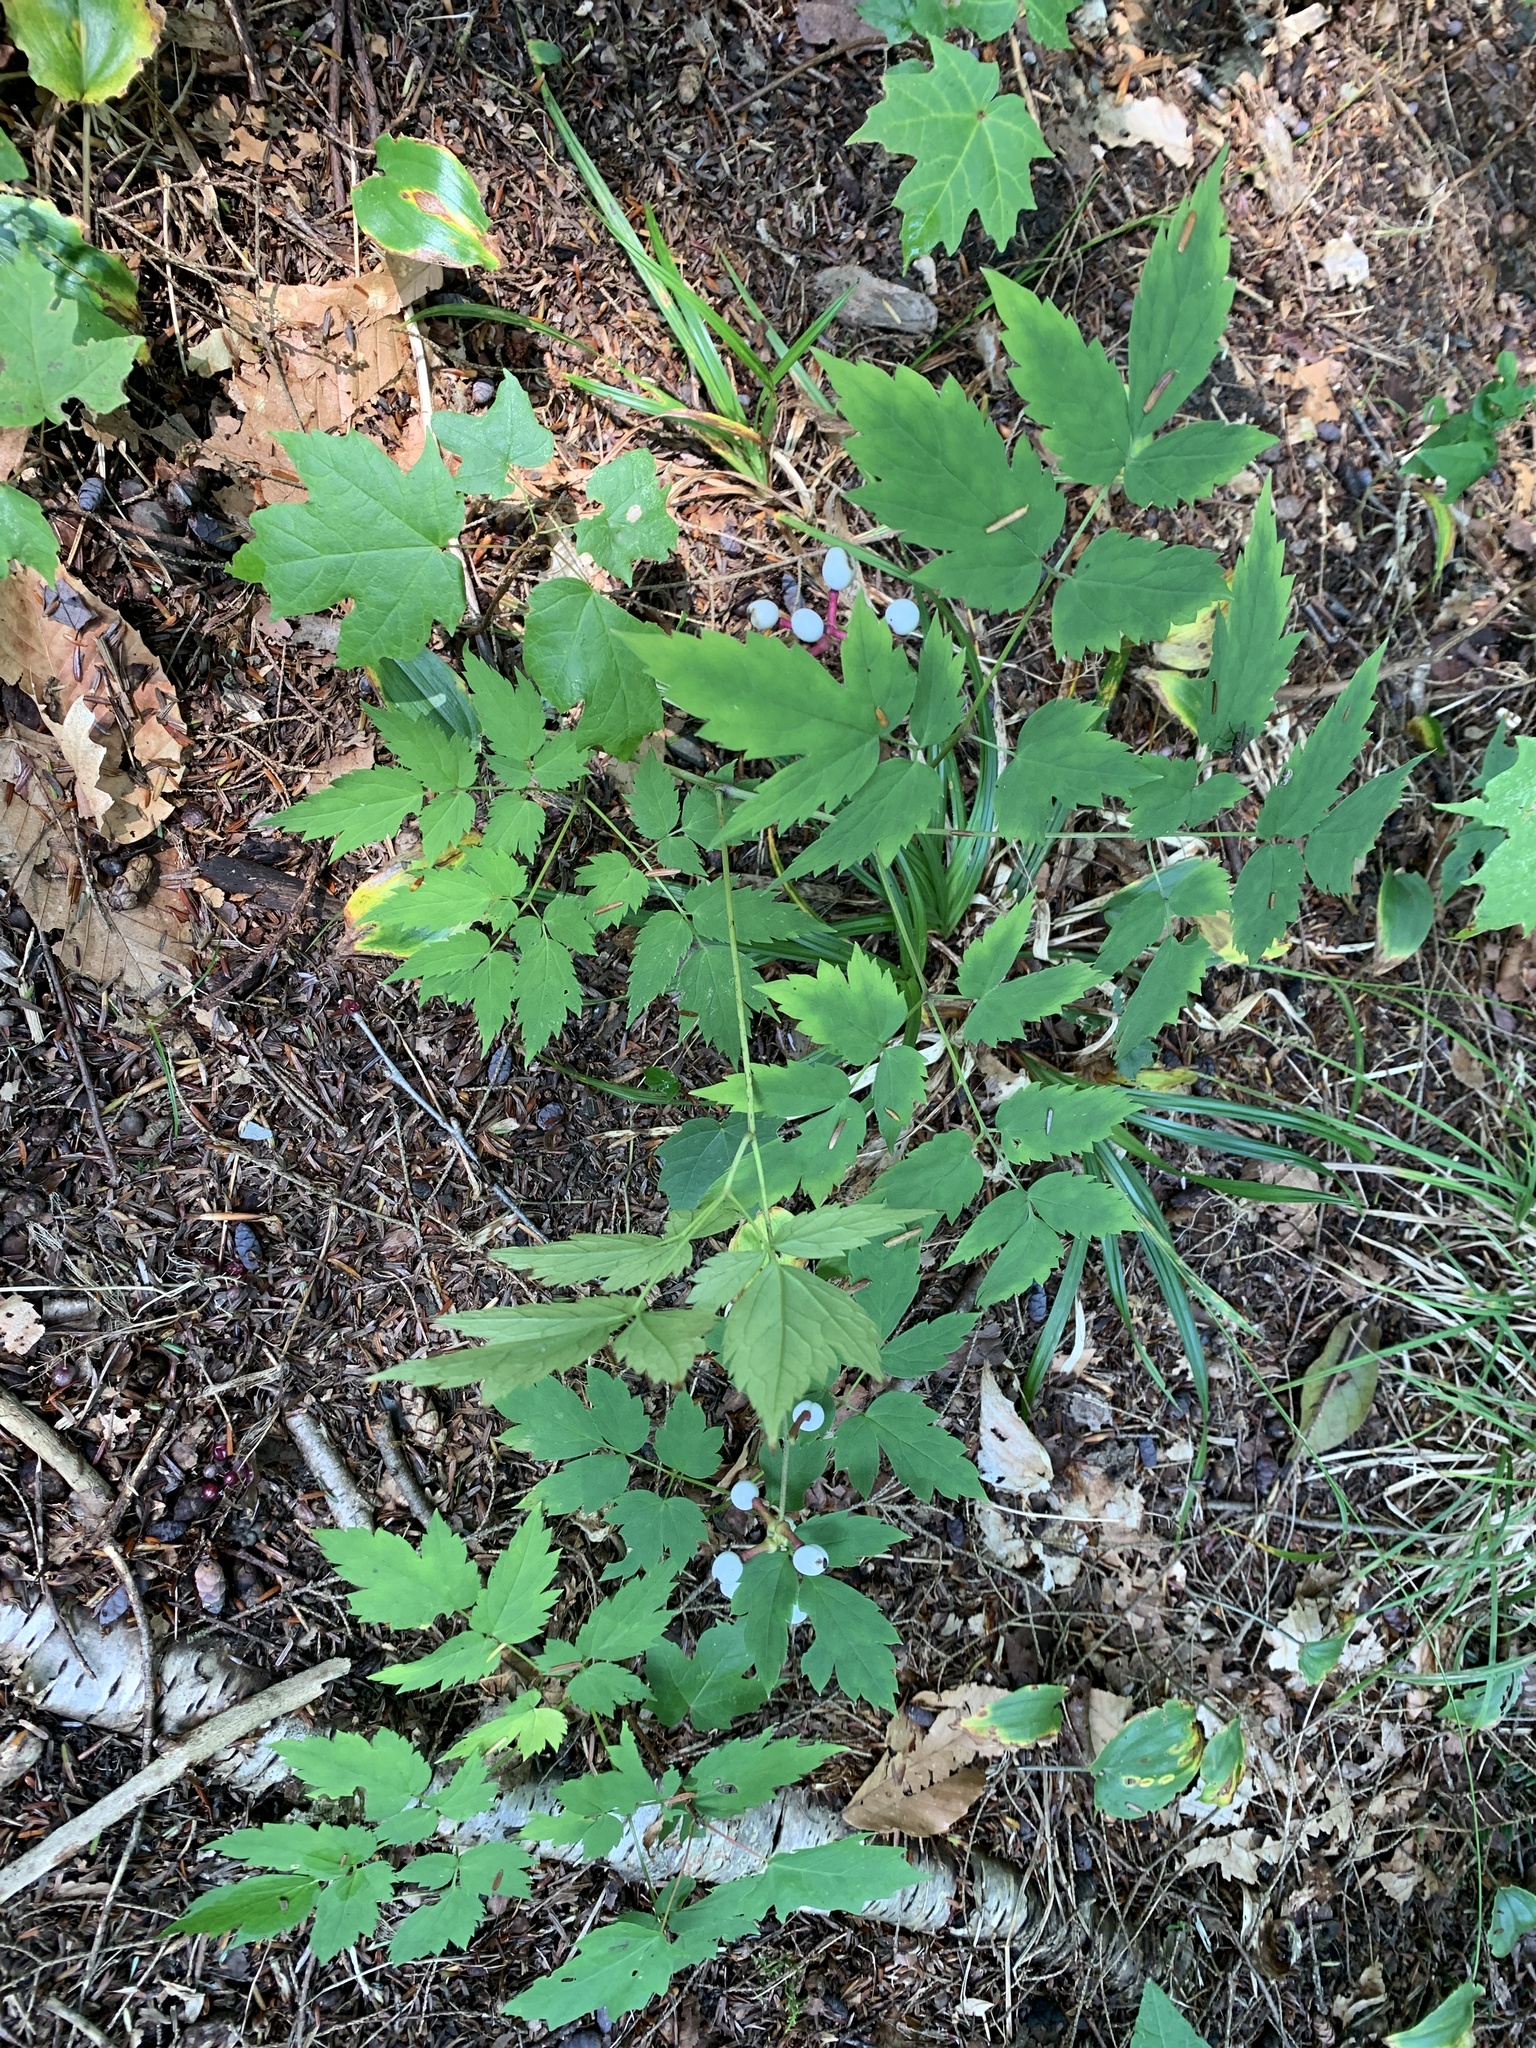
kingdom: Plantae
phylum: Tracheophyta
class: Magnoliopsida
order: Ranunculales
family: Ranunculaceae
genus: Actaea
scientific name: Actaea pachypoda
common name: Doll's-eyes
